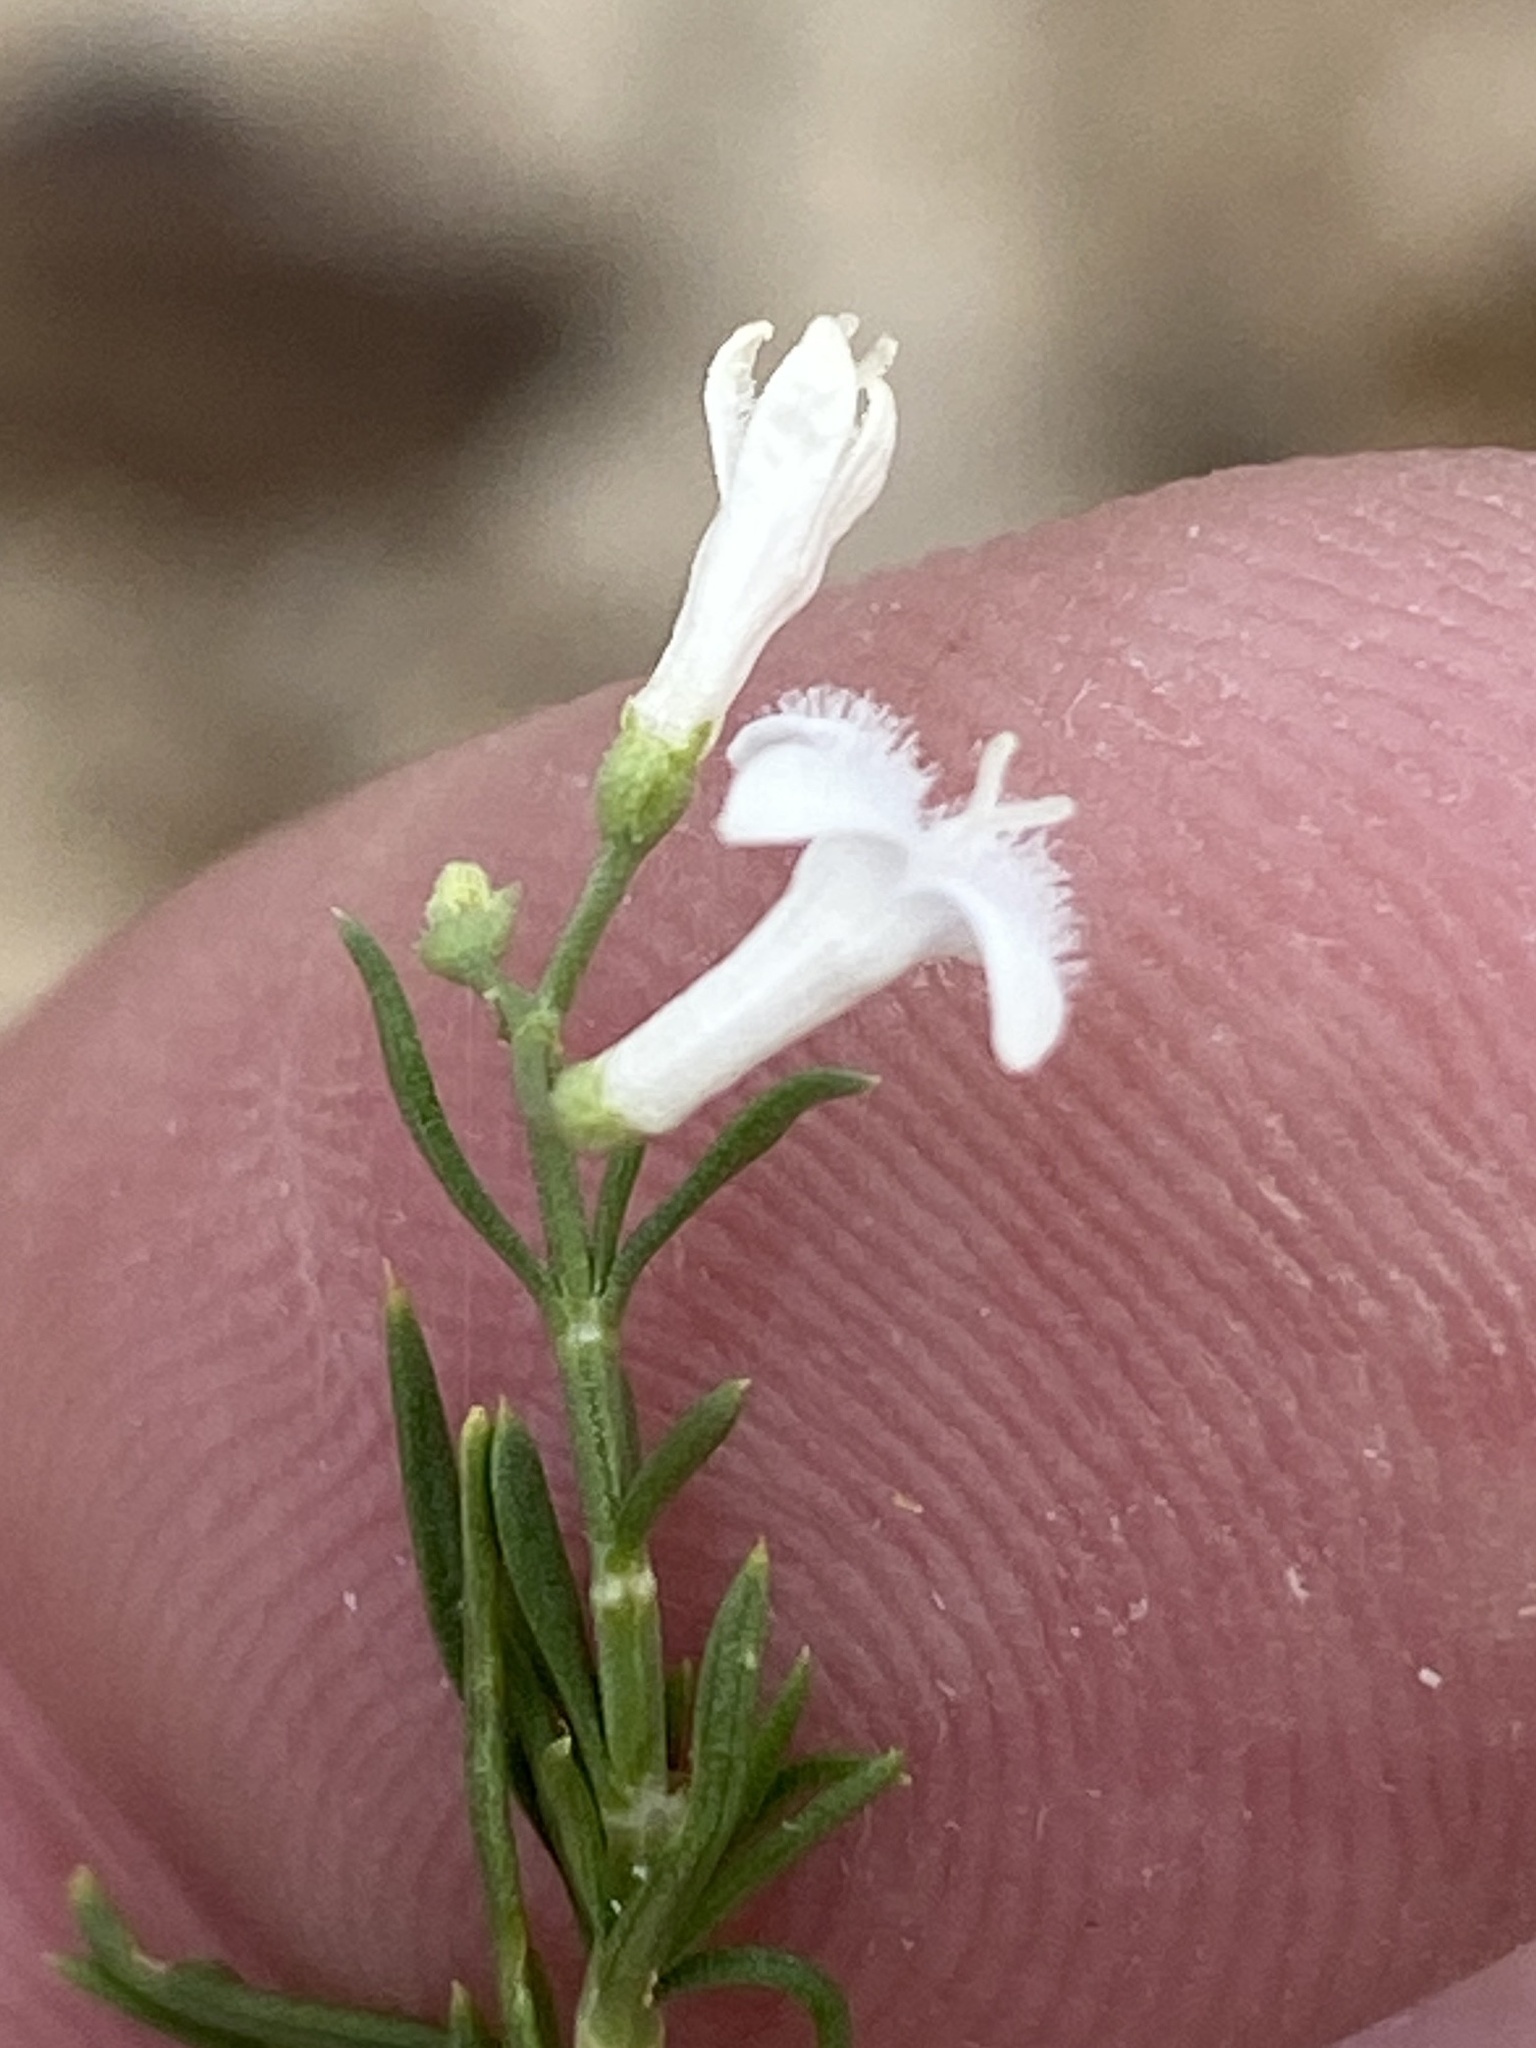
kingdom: Plantae
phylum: Tracheophyta
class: Magnoliopsida
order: Gentianales
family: Rubiaceae
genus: Amphiasma
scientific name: Amphiasma divaricatum
